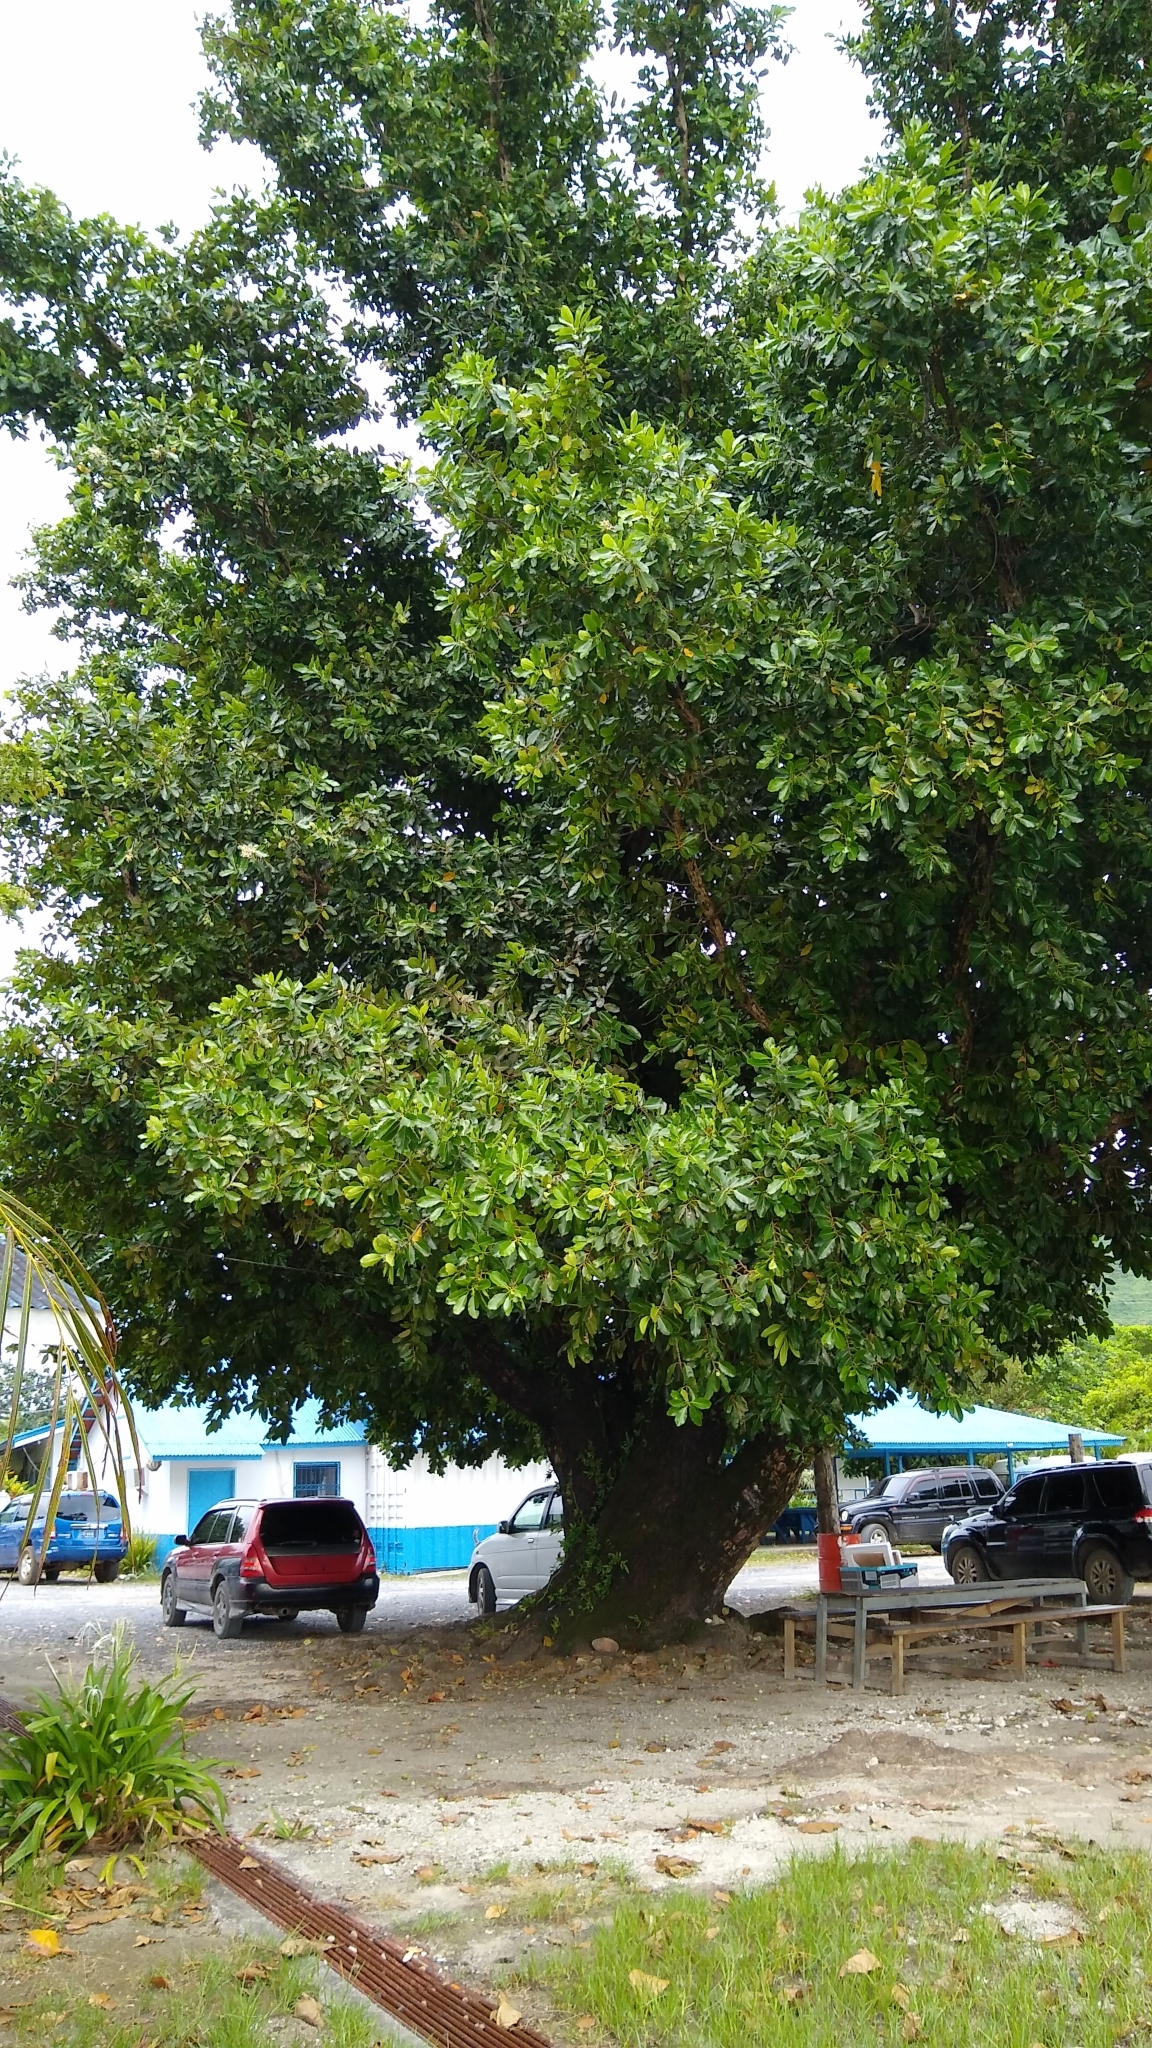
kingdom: Plantae
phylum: Tracheophyta
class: Magnoliopsida
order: Malpighiales
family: Calophyllaceae
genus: Calophyllum
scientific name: Calophyllum inophyllum
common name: Alexandrian laurel
